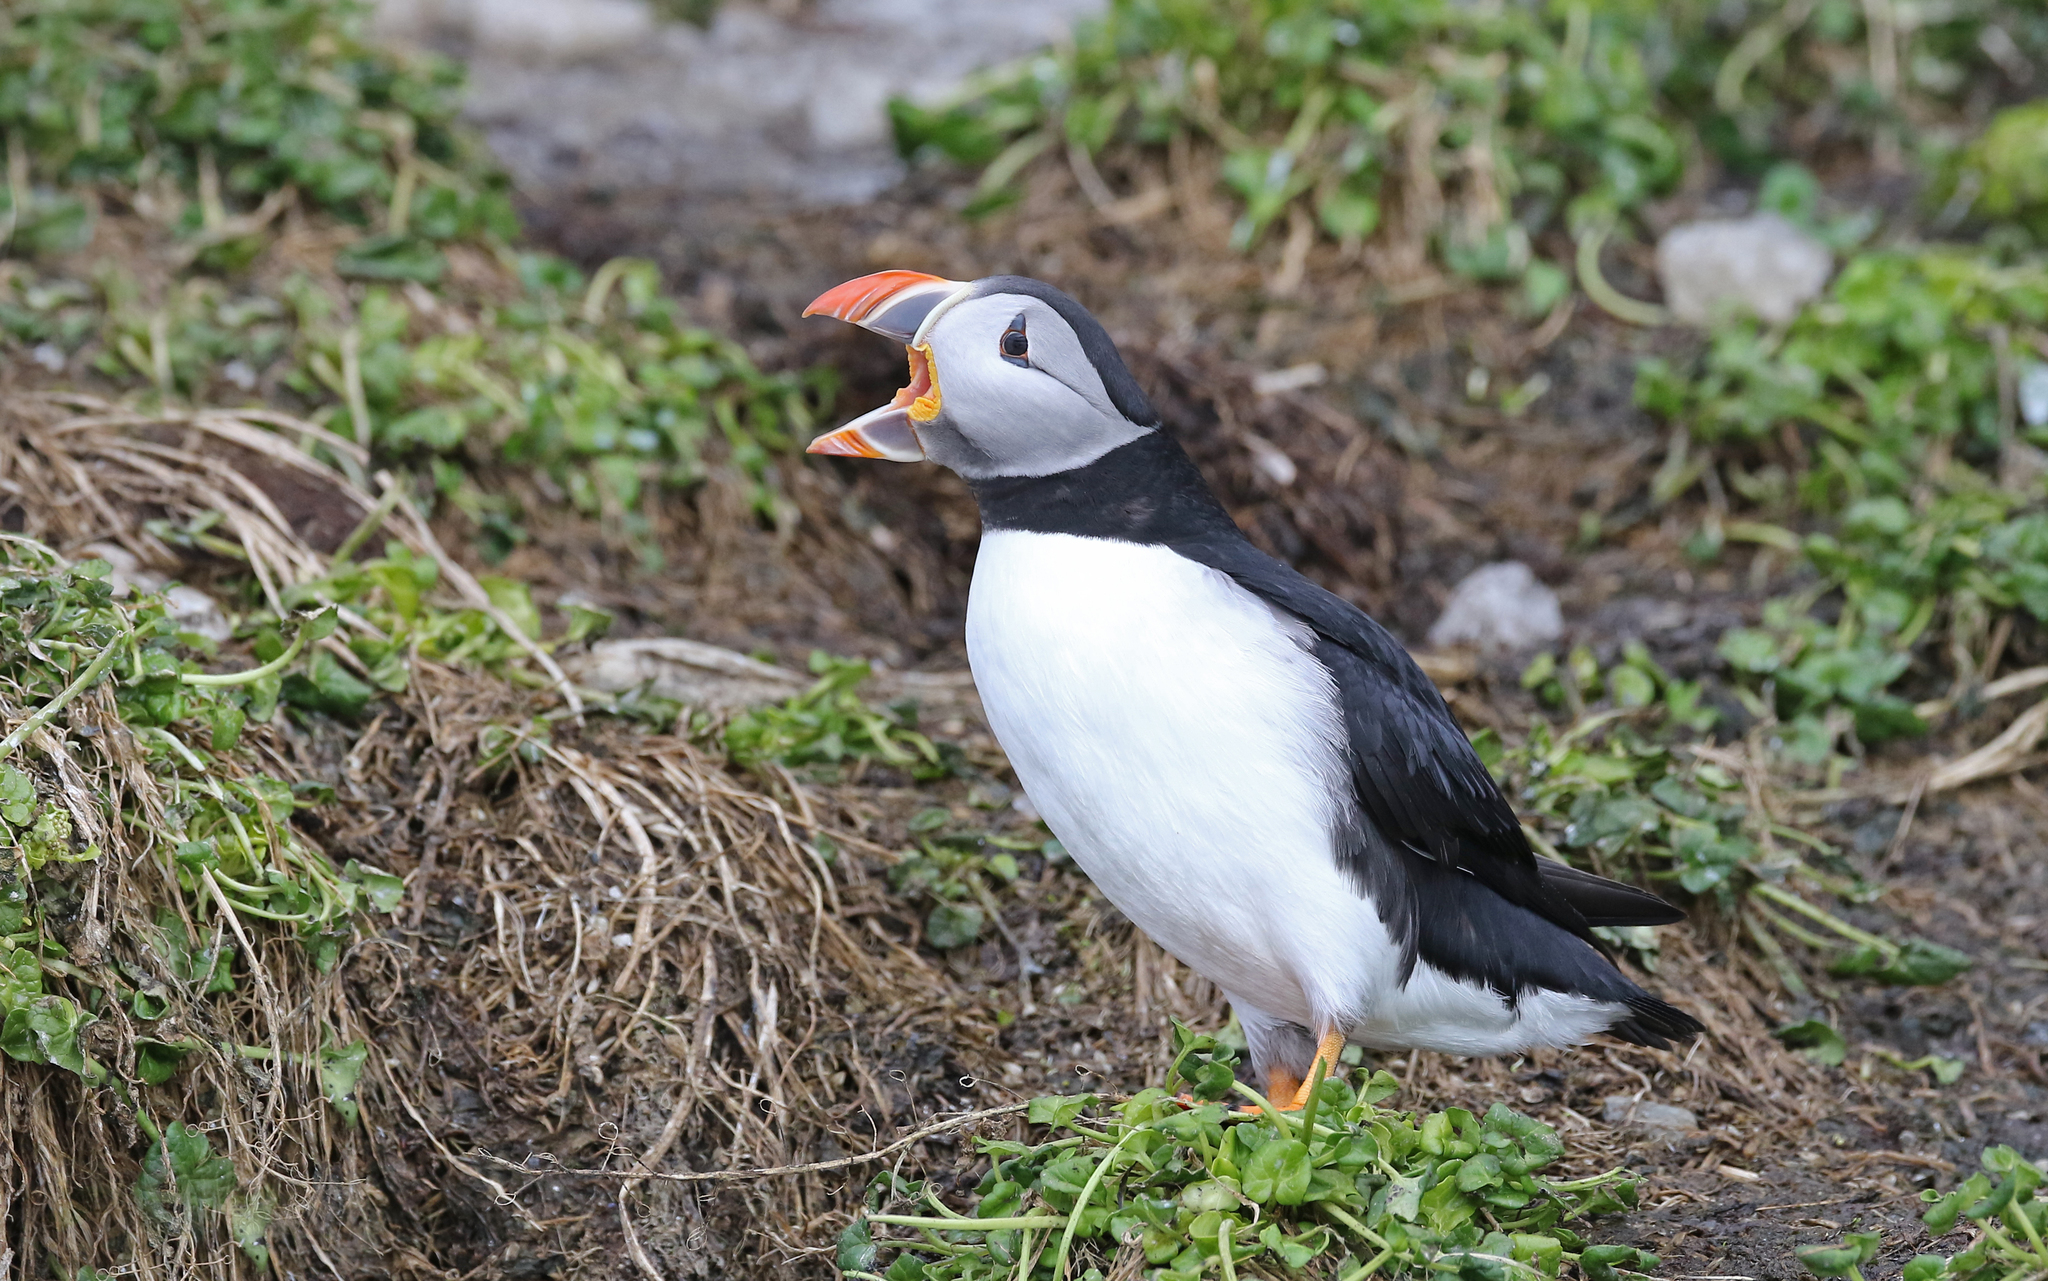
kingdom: Animalia
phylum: Chordata
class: Aves
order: Charadriiformes
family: Alcidae
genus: Fratercula
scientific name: Fratercula arctica
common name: Atlantic puffin
